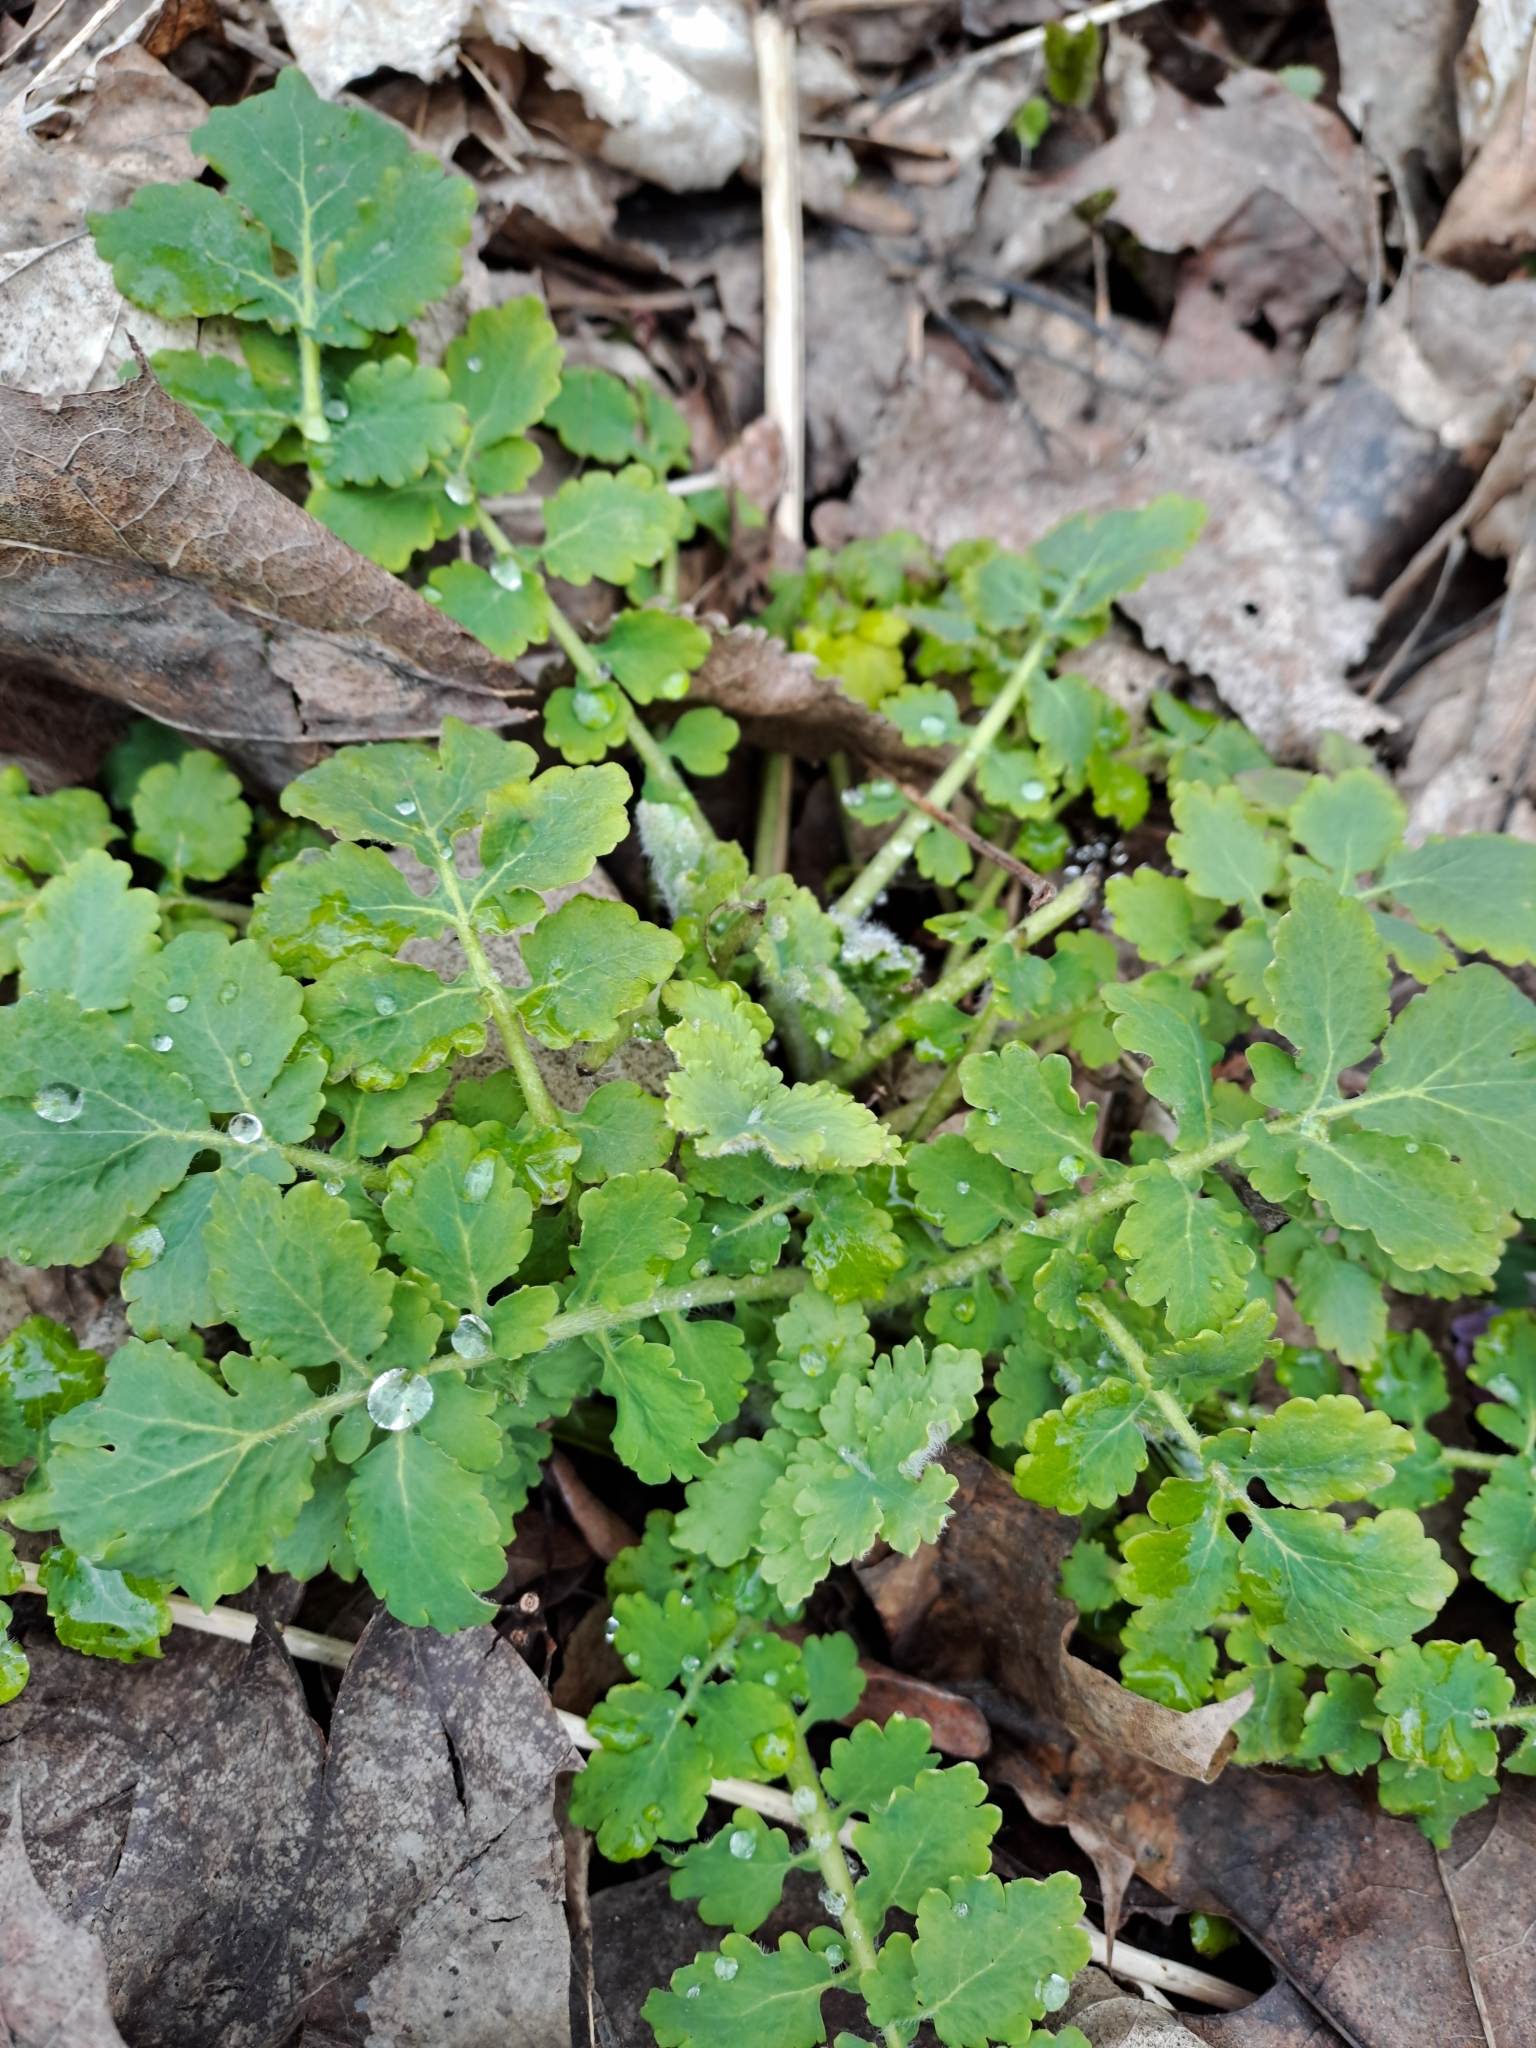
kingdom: Plantae
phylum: Tracheophyta
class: Magnoliopsida
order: Ranunculales
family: Papaveraceae
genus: Chelidonium
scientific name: Chelidonium majus
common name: Greater celandine
